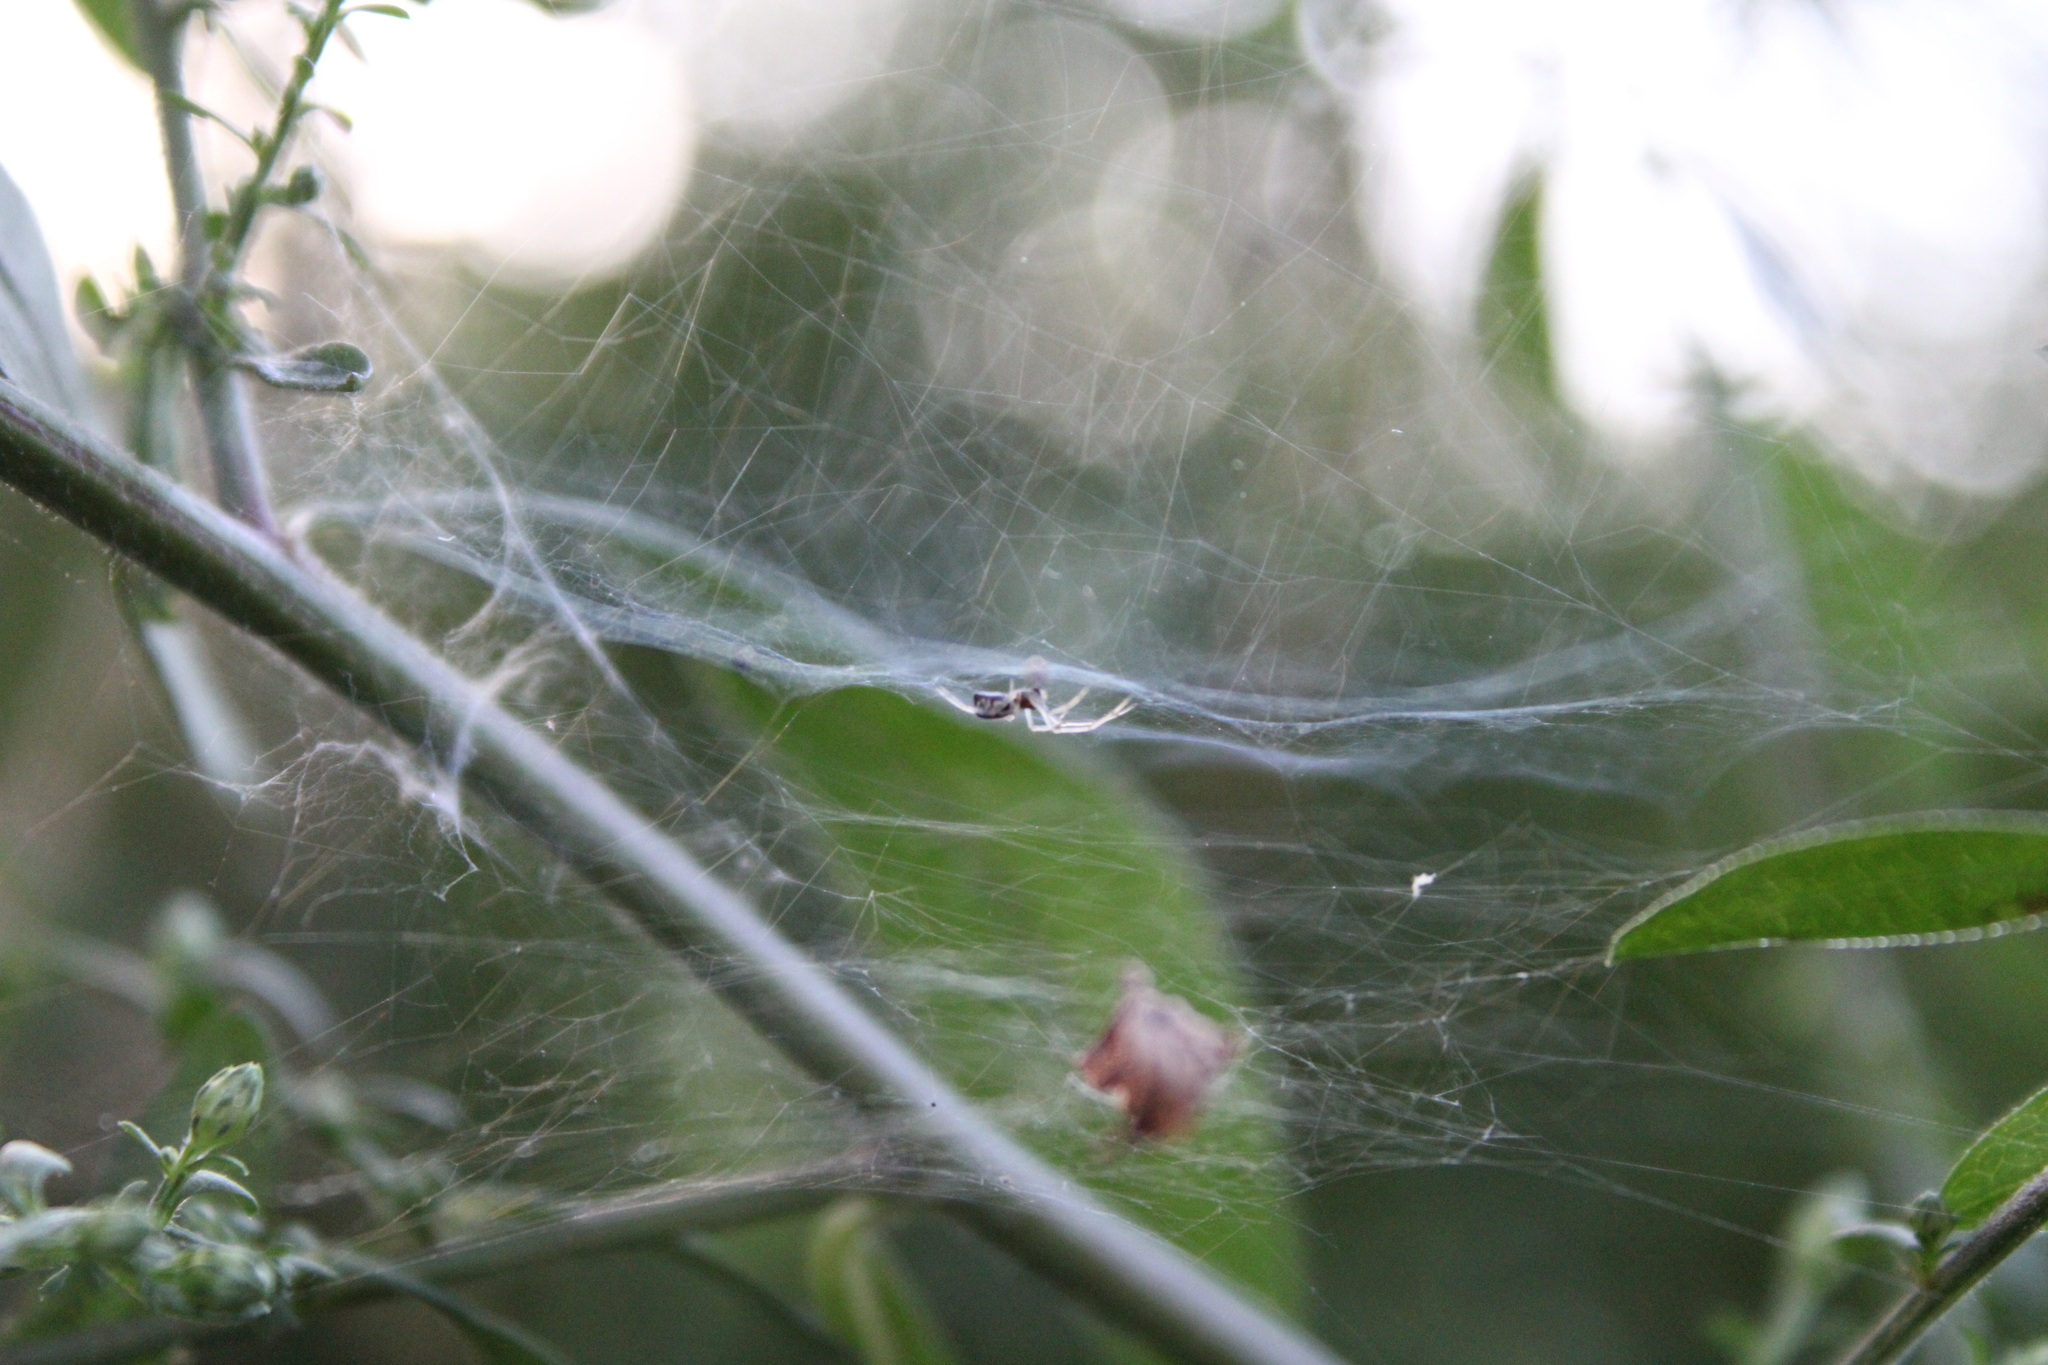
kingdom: Animalia
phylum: Arthropoda
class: Arachnida
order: Araneae
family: Linyphiidae
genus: Frontinella
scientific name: Frontinella pyramitela
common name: Bowl-and-doily spider
